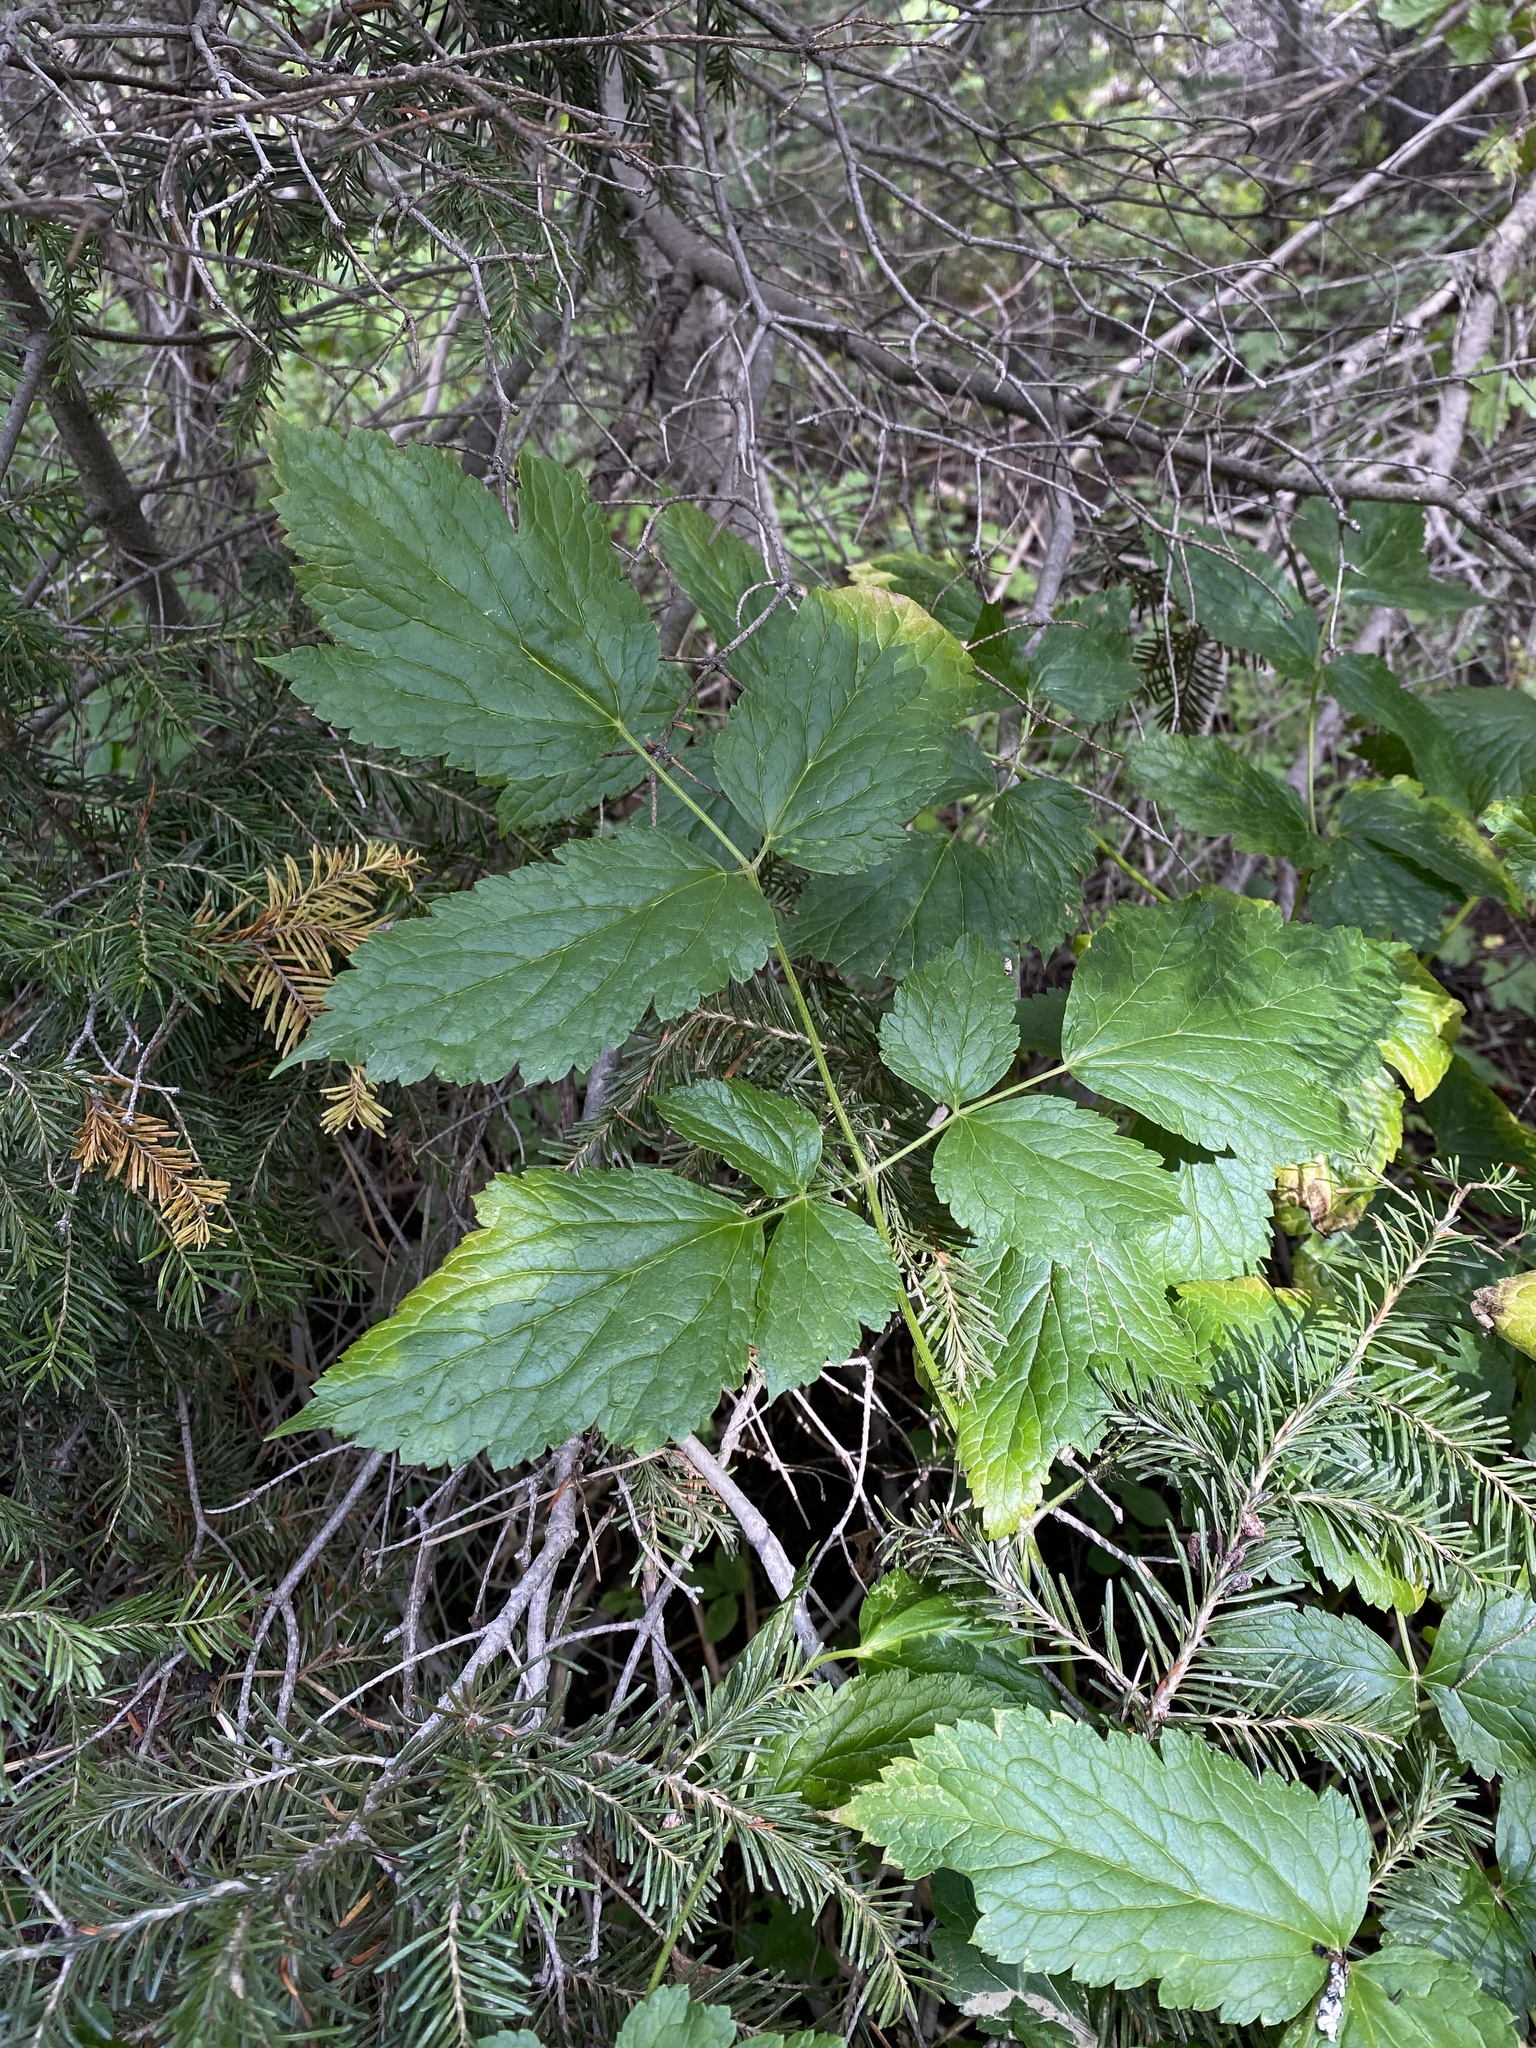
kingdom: Plantae
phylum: Tracheophyta
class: Magnoliopsida
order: Ranunculales
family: Ranunculaceae
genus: Actaea
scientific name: Actaea rubra
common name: Red baneberry
